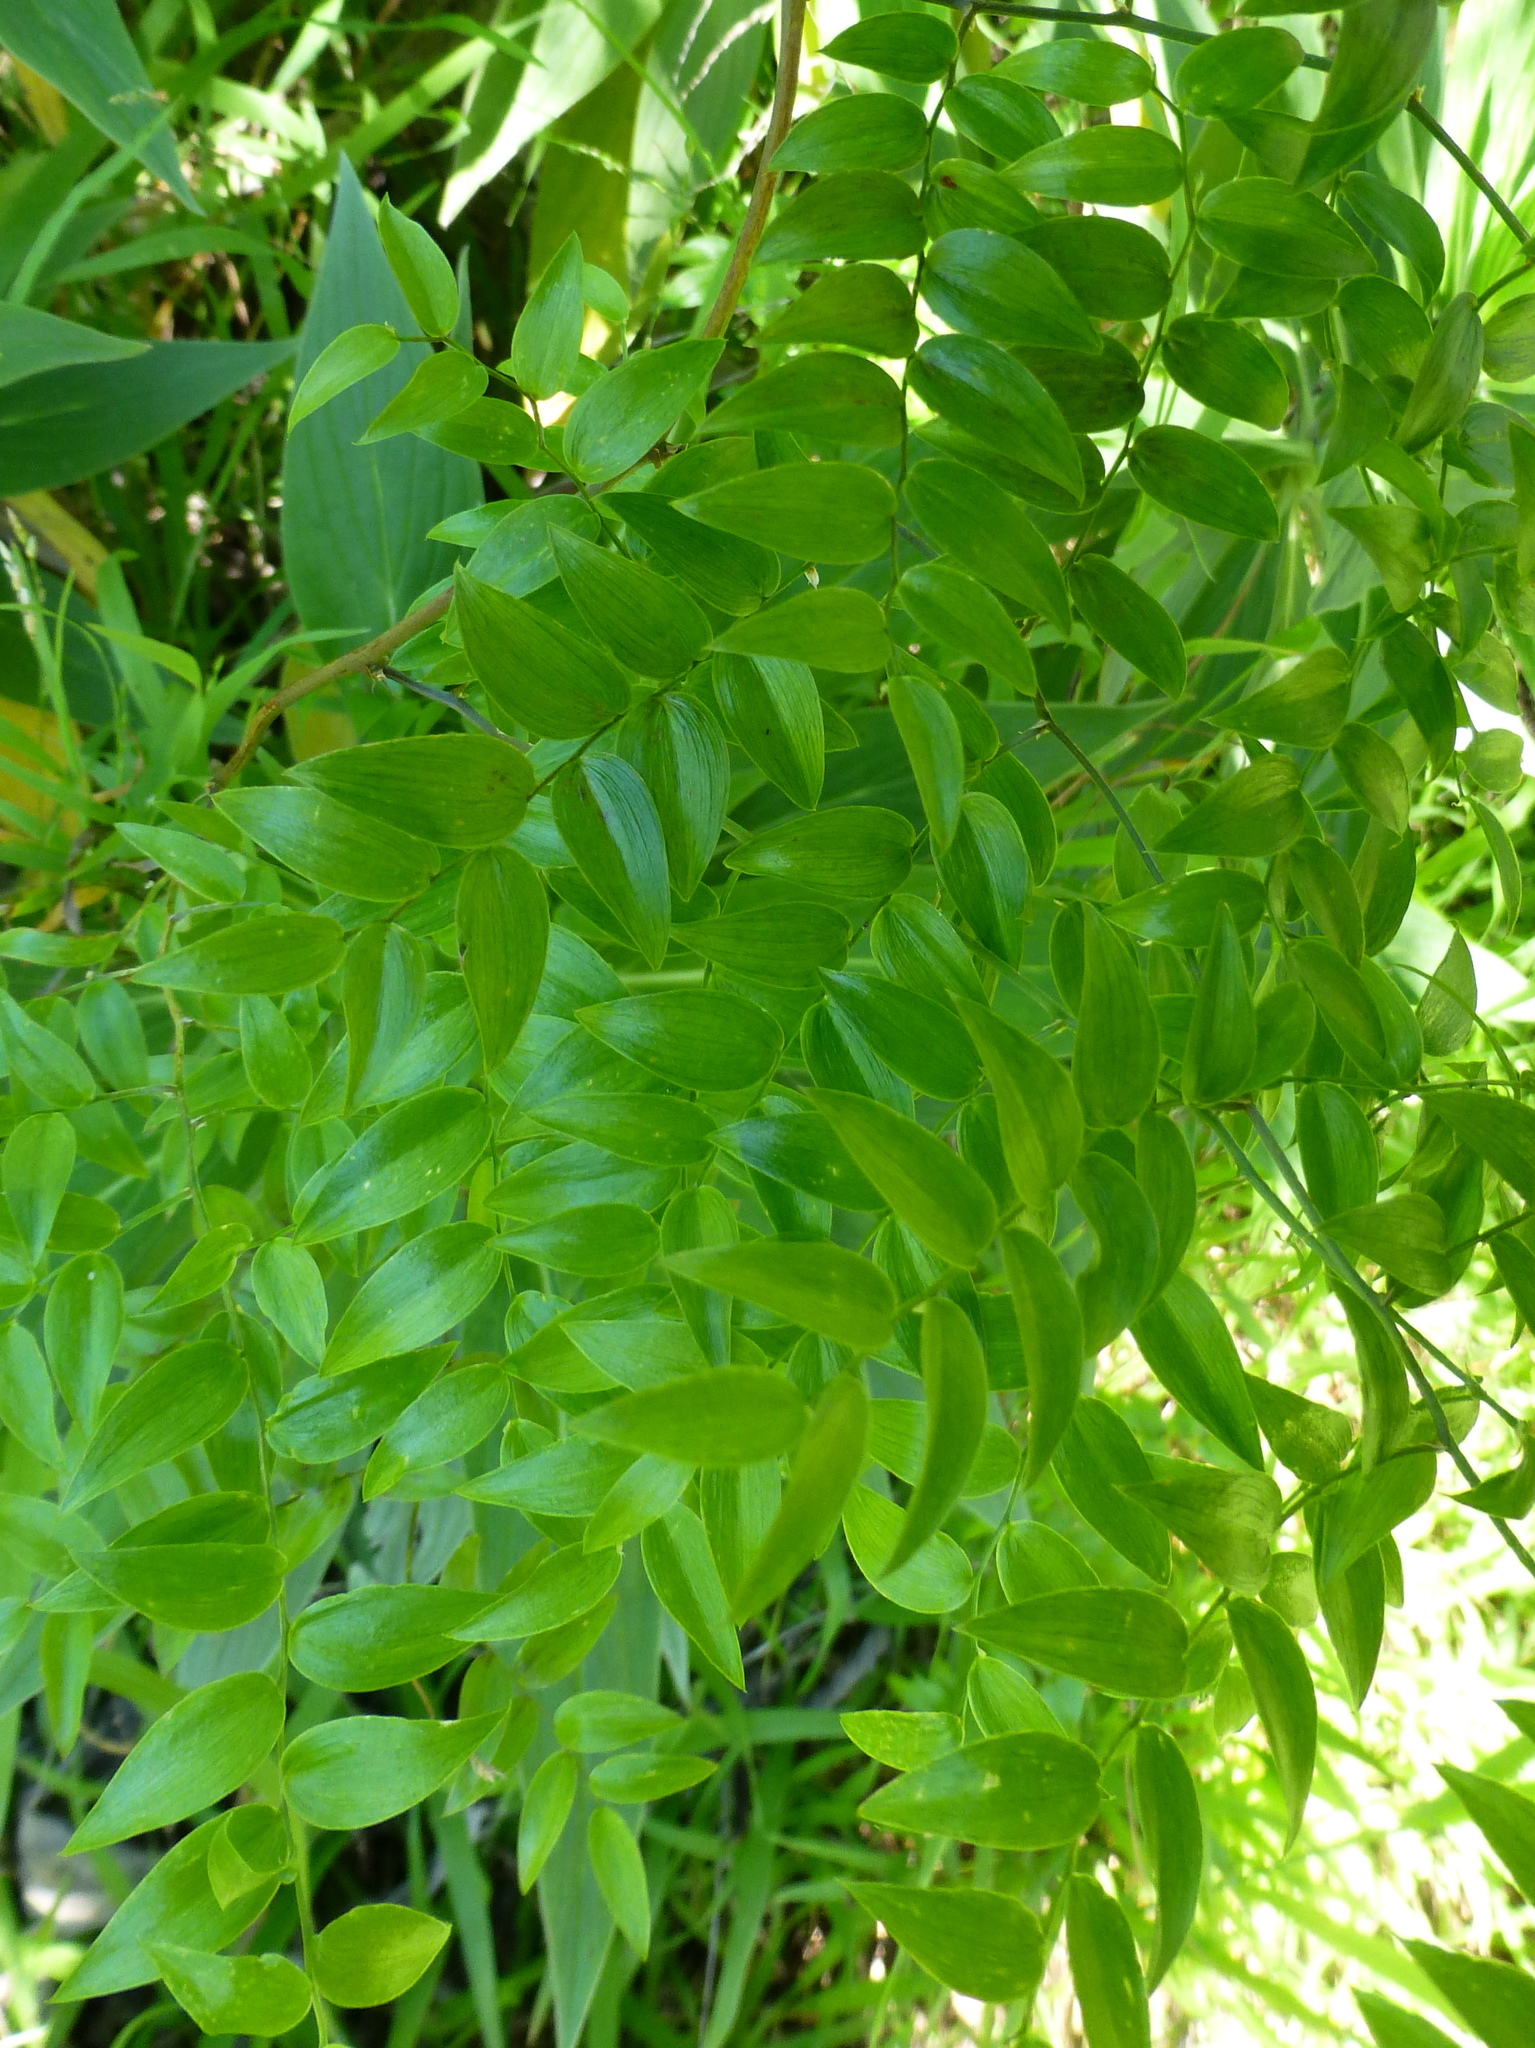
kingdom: Plantae
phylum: Tracheophyta
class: Liliopsida
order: Asparagales
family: Asparagaceae
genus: Asparagus
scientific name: Asparagus asparagoides
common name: African asparagus fern
